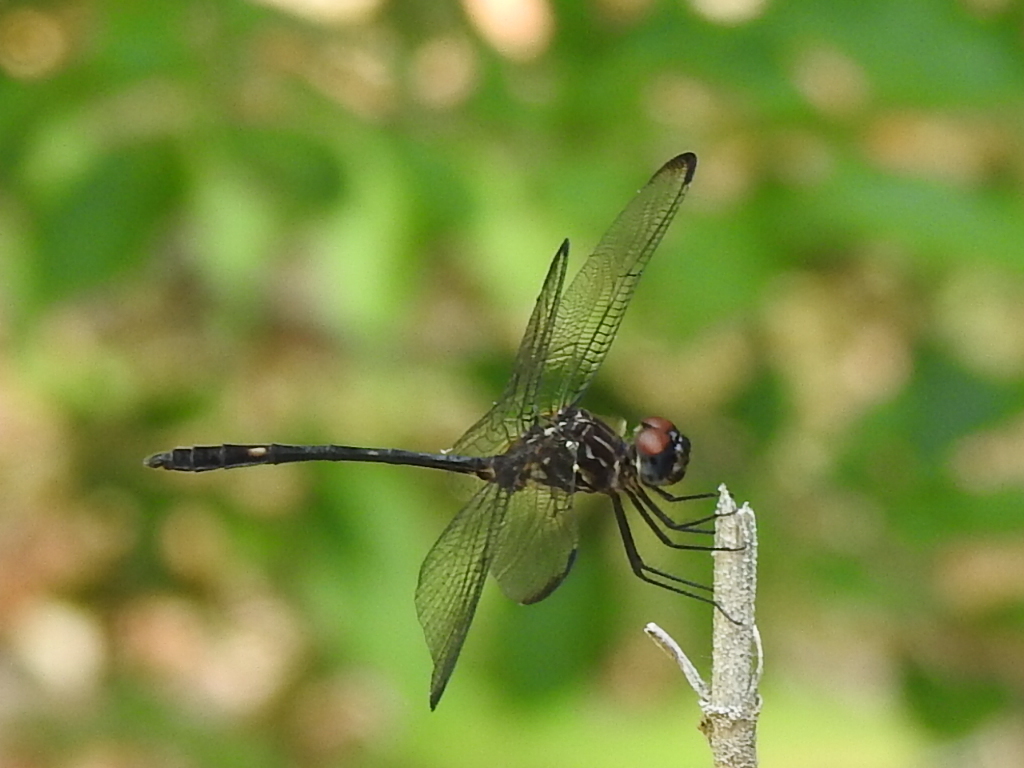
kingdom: Animalia
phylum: Arthropoda
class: Insecta
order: Odonata
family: Libellulidae
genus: Dythemis
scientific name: Dythemis velox
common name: Swift setwing
